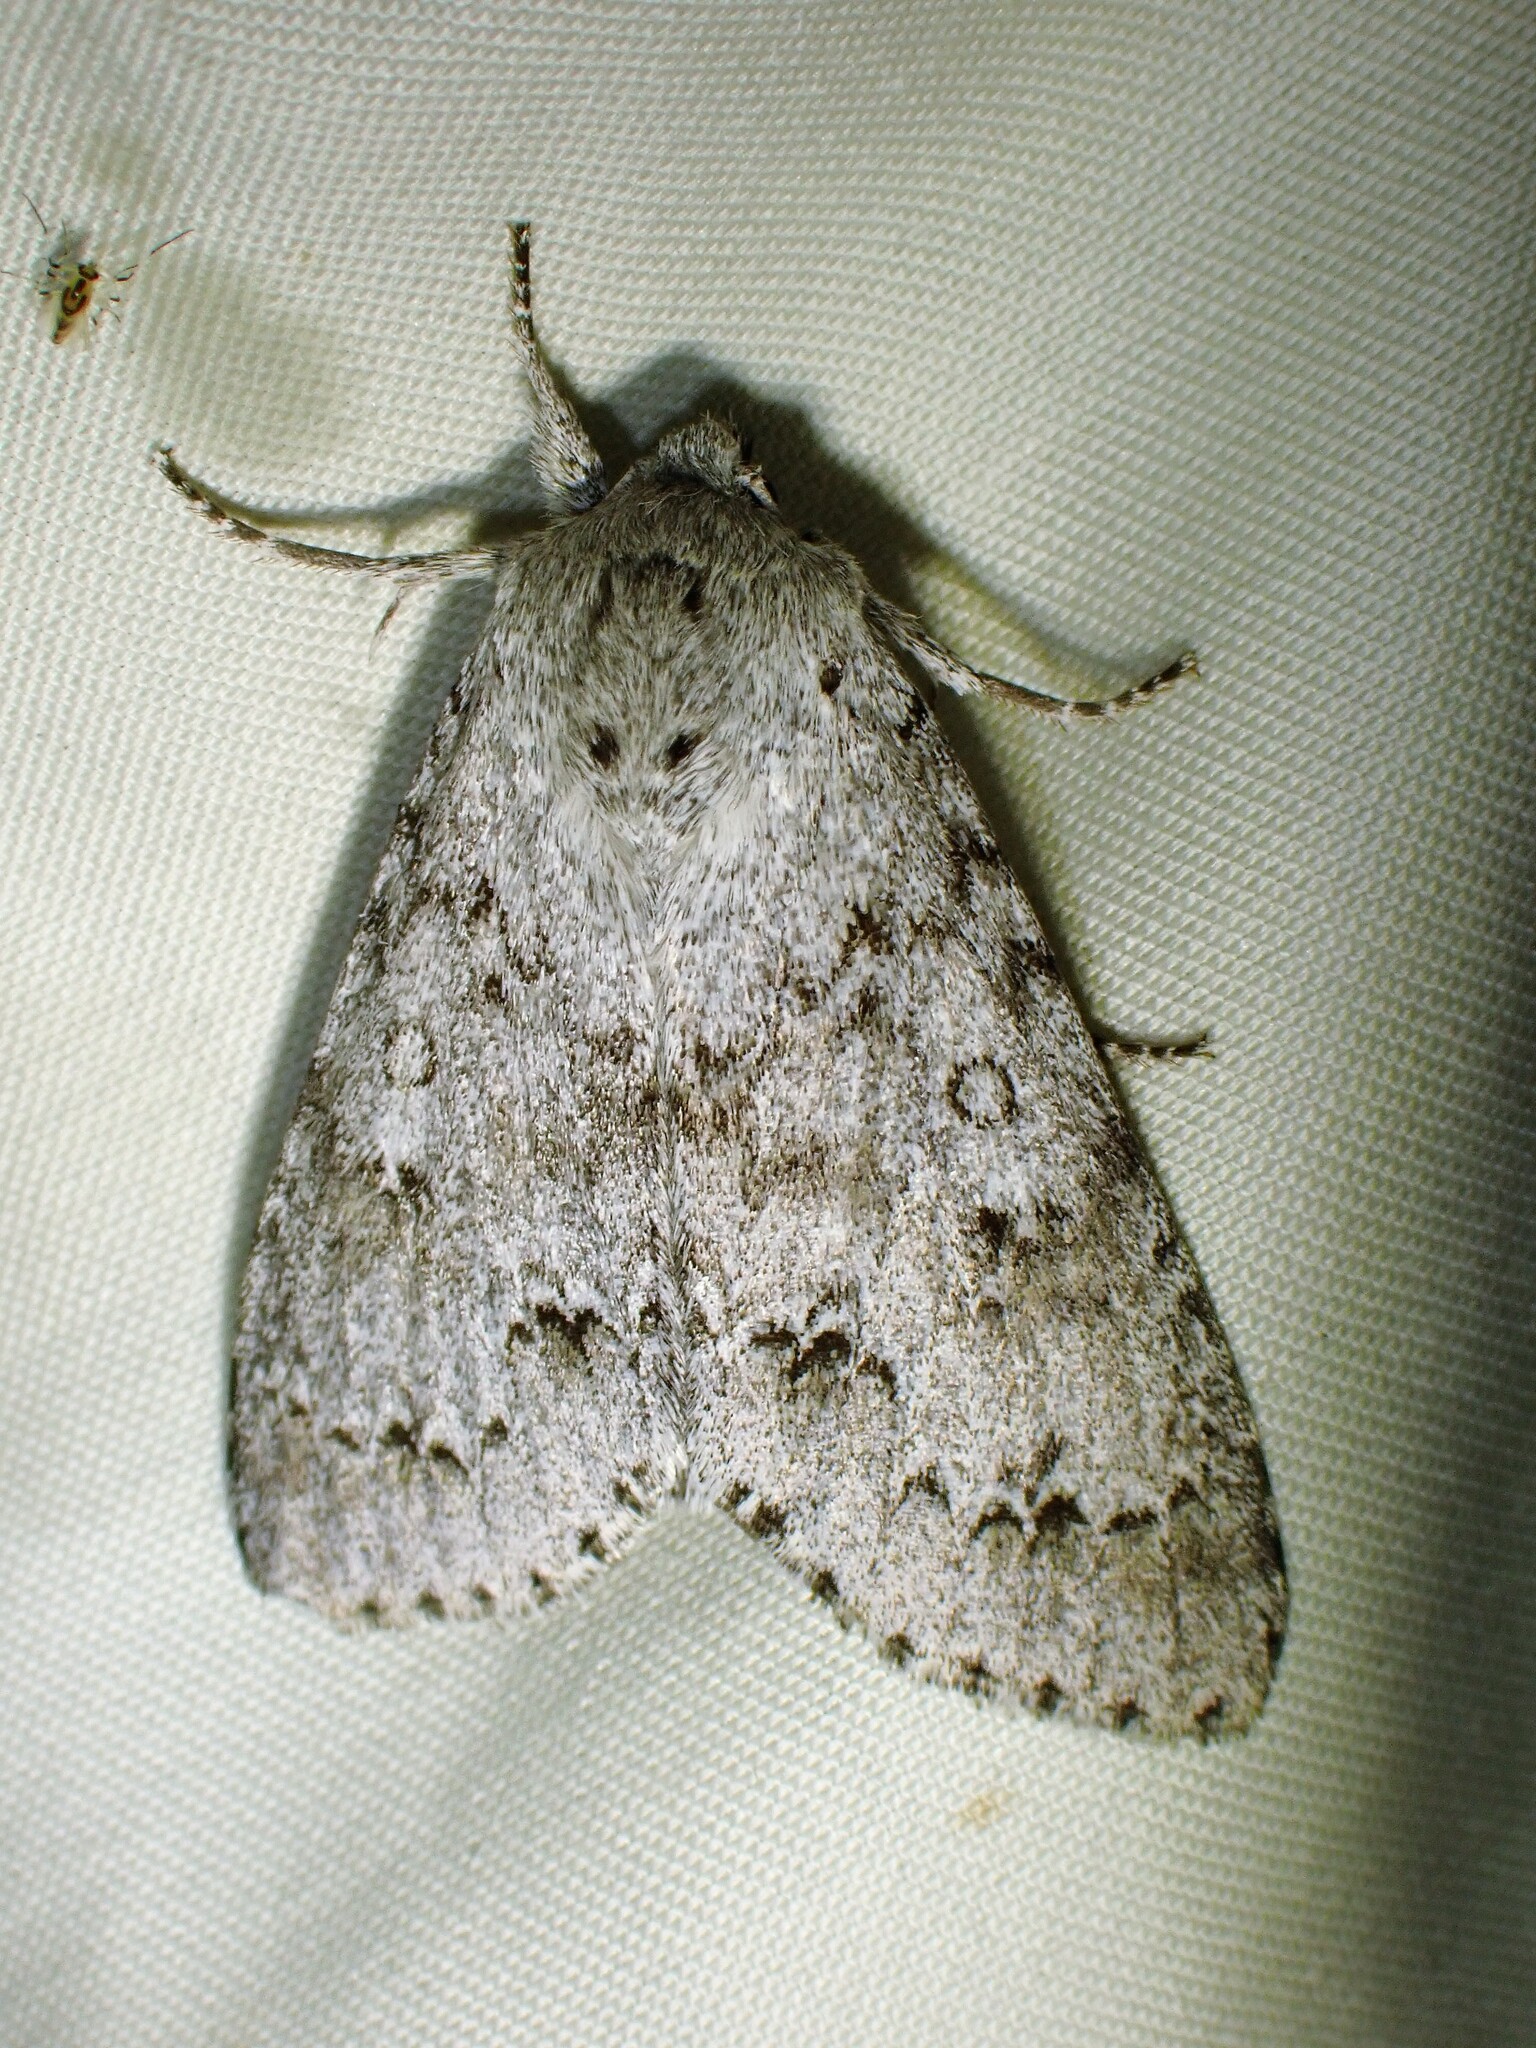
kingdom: Animalia
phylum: Arthropoda
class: Insecta
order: Lepidoptera
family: Noctuidae
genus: Acronicta
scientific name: Acronicta insita
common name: Large gray dagger
